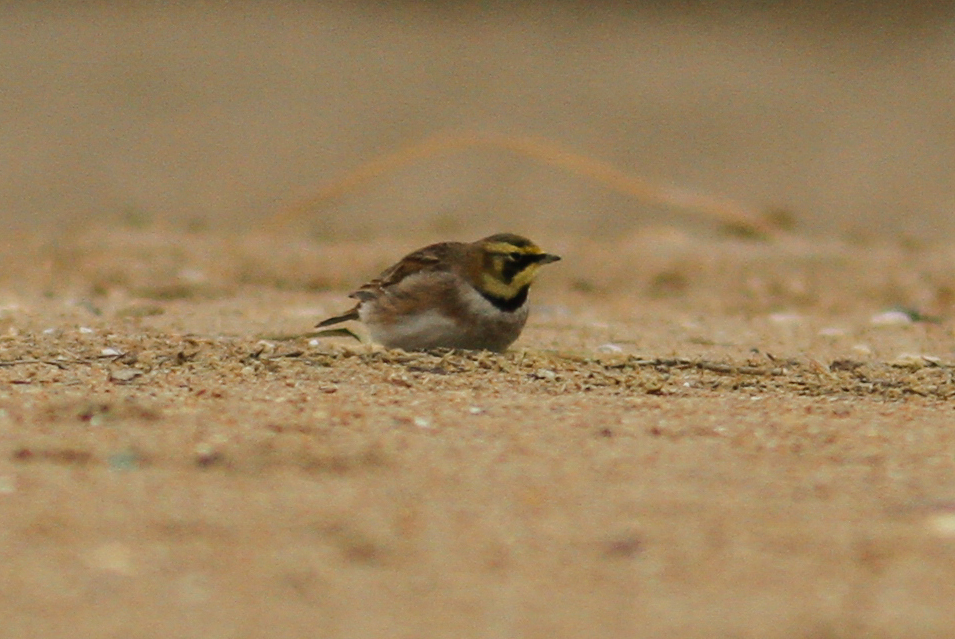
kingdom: Animalia
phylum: Chordata
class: Aves
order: Passeriformes
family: Alaudidae
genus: Eremophila
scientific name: Eremophila alpestris
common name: Horned lark
